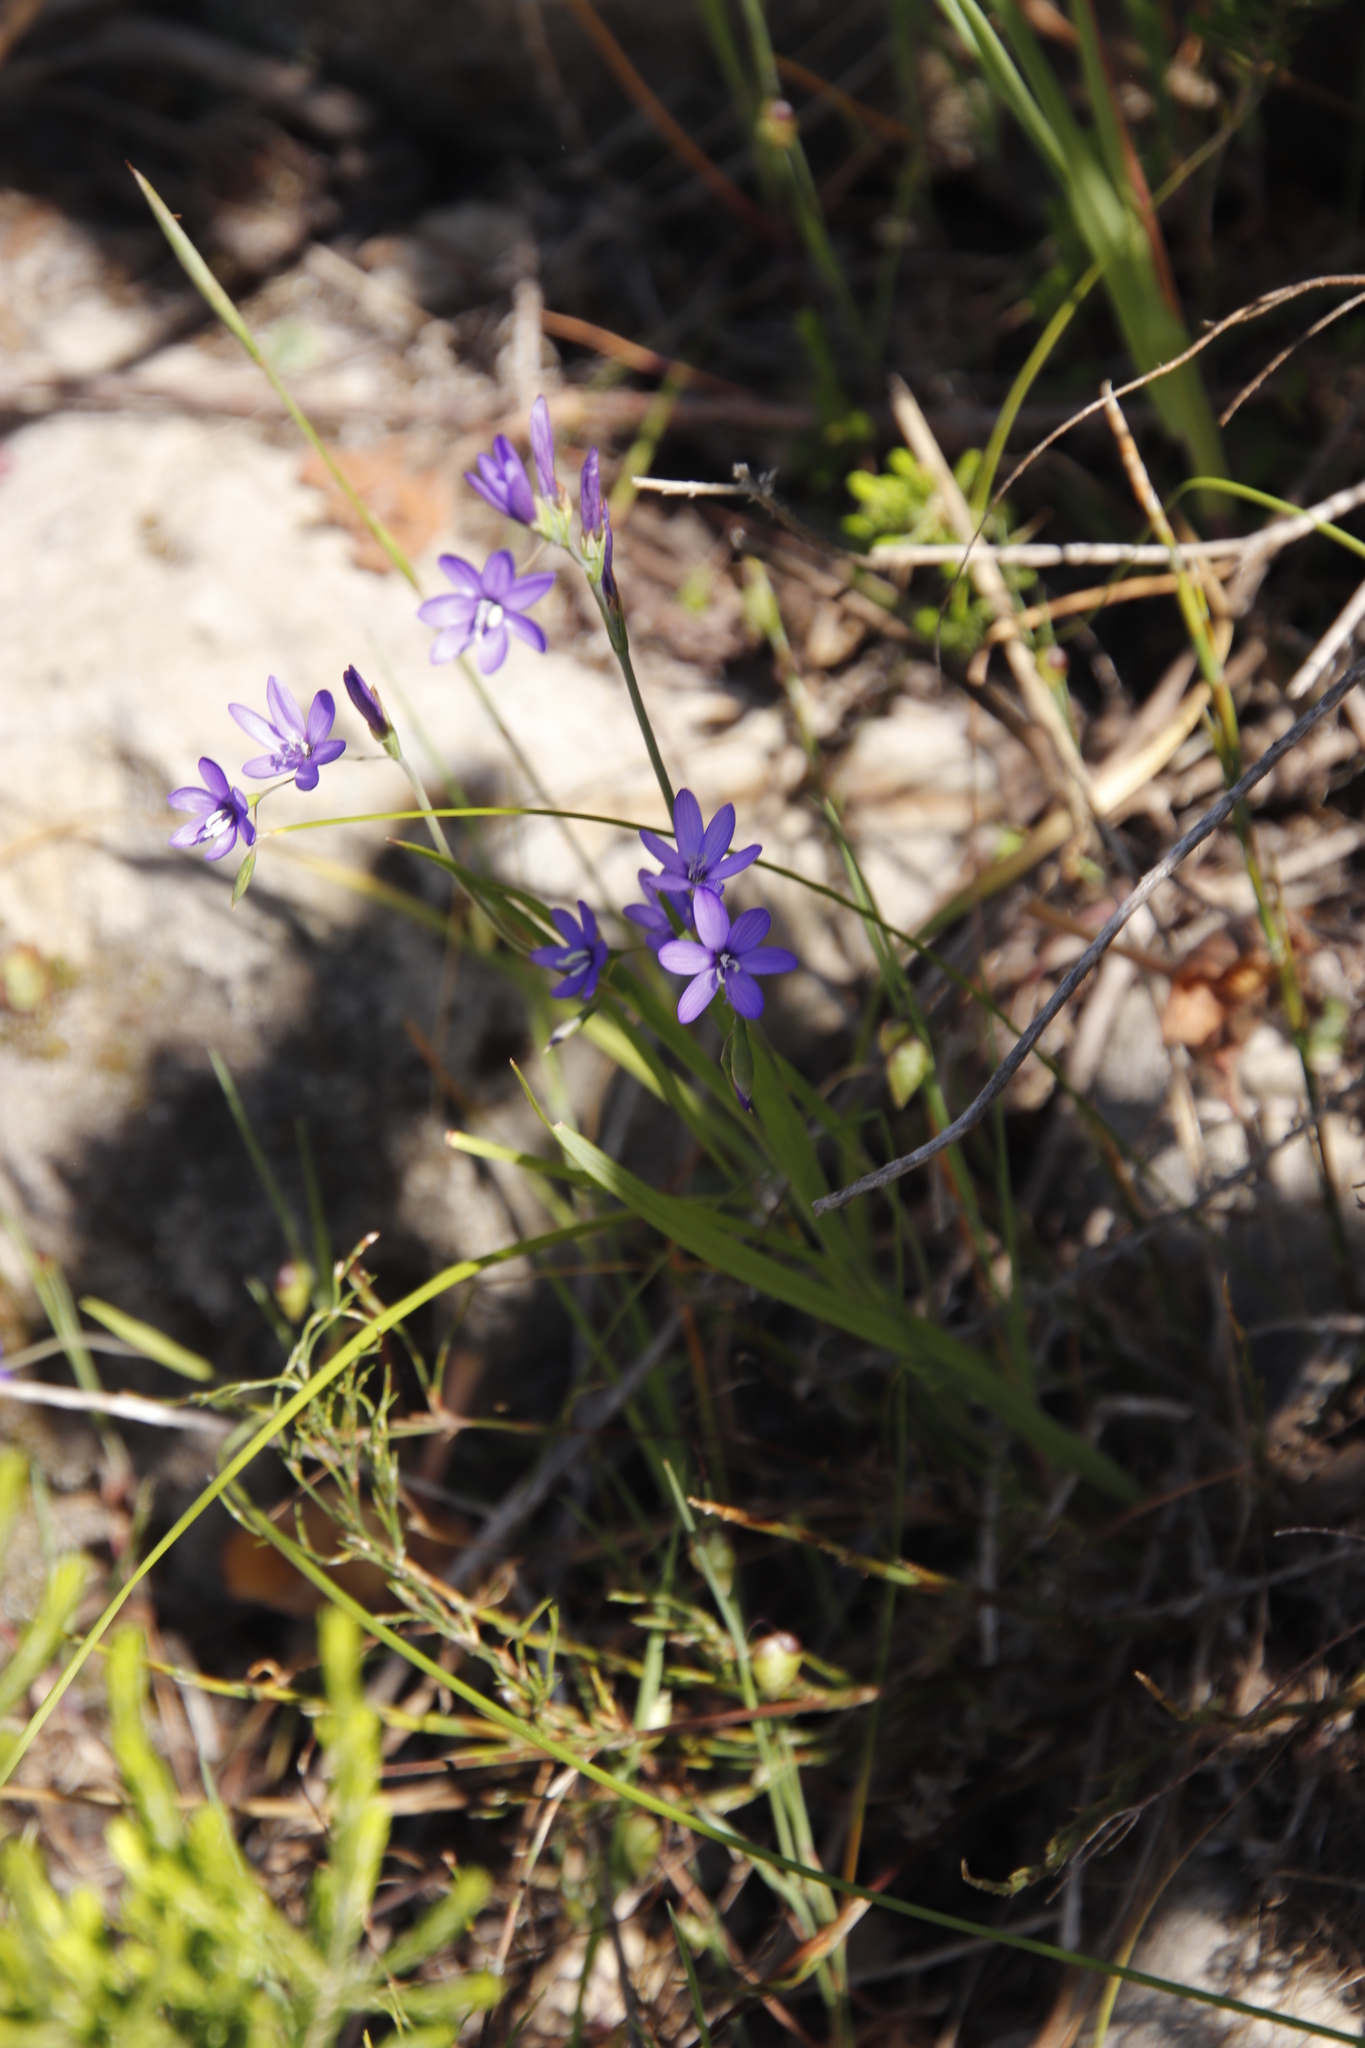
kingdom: Plantae
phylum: Tracheophyta
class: Liliopsida
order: Asparagales
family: Iridaceae
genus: Geissorhiza
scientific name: Geissorhiza aspera
